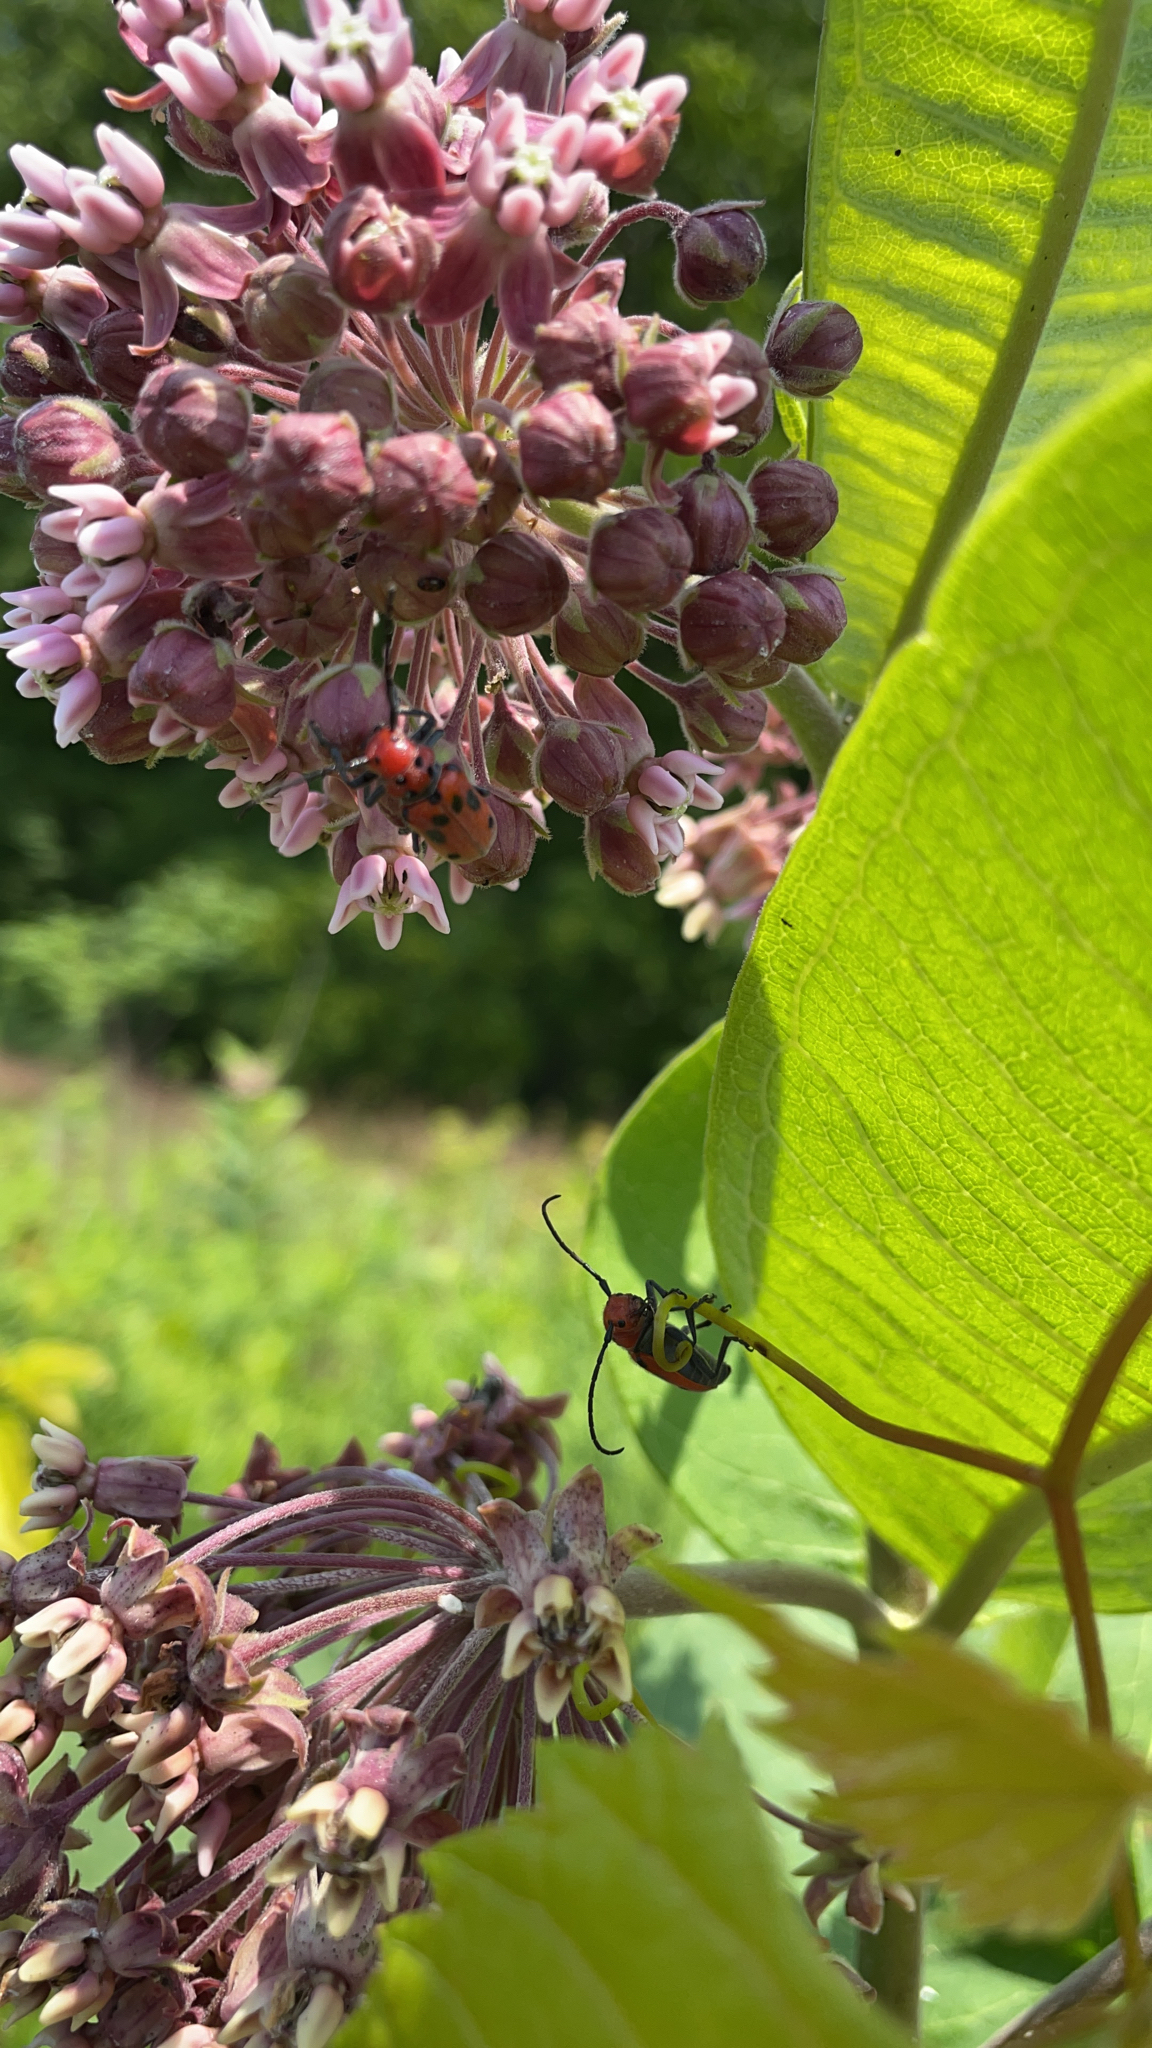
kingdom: Animalia
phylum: Arthropoda
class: Insecta
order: Coleoptera
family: Cerambycidae
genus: Tetraopes
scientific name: Tetraopes tetrophthalmus
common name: Red milkweed beetle
